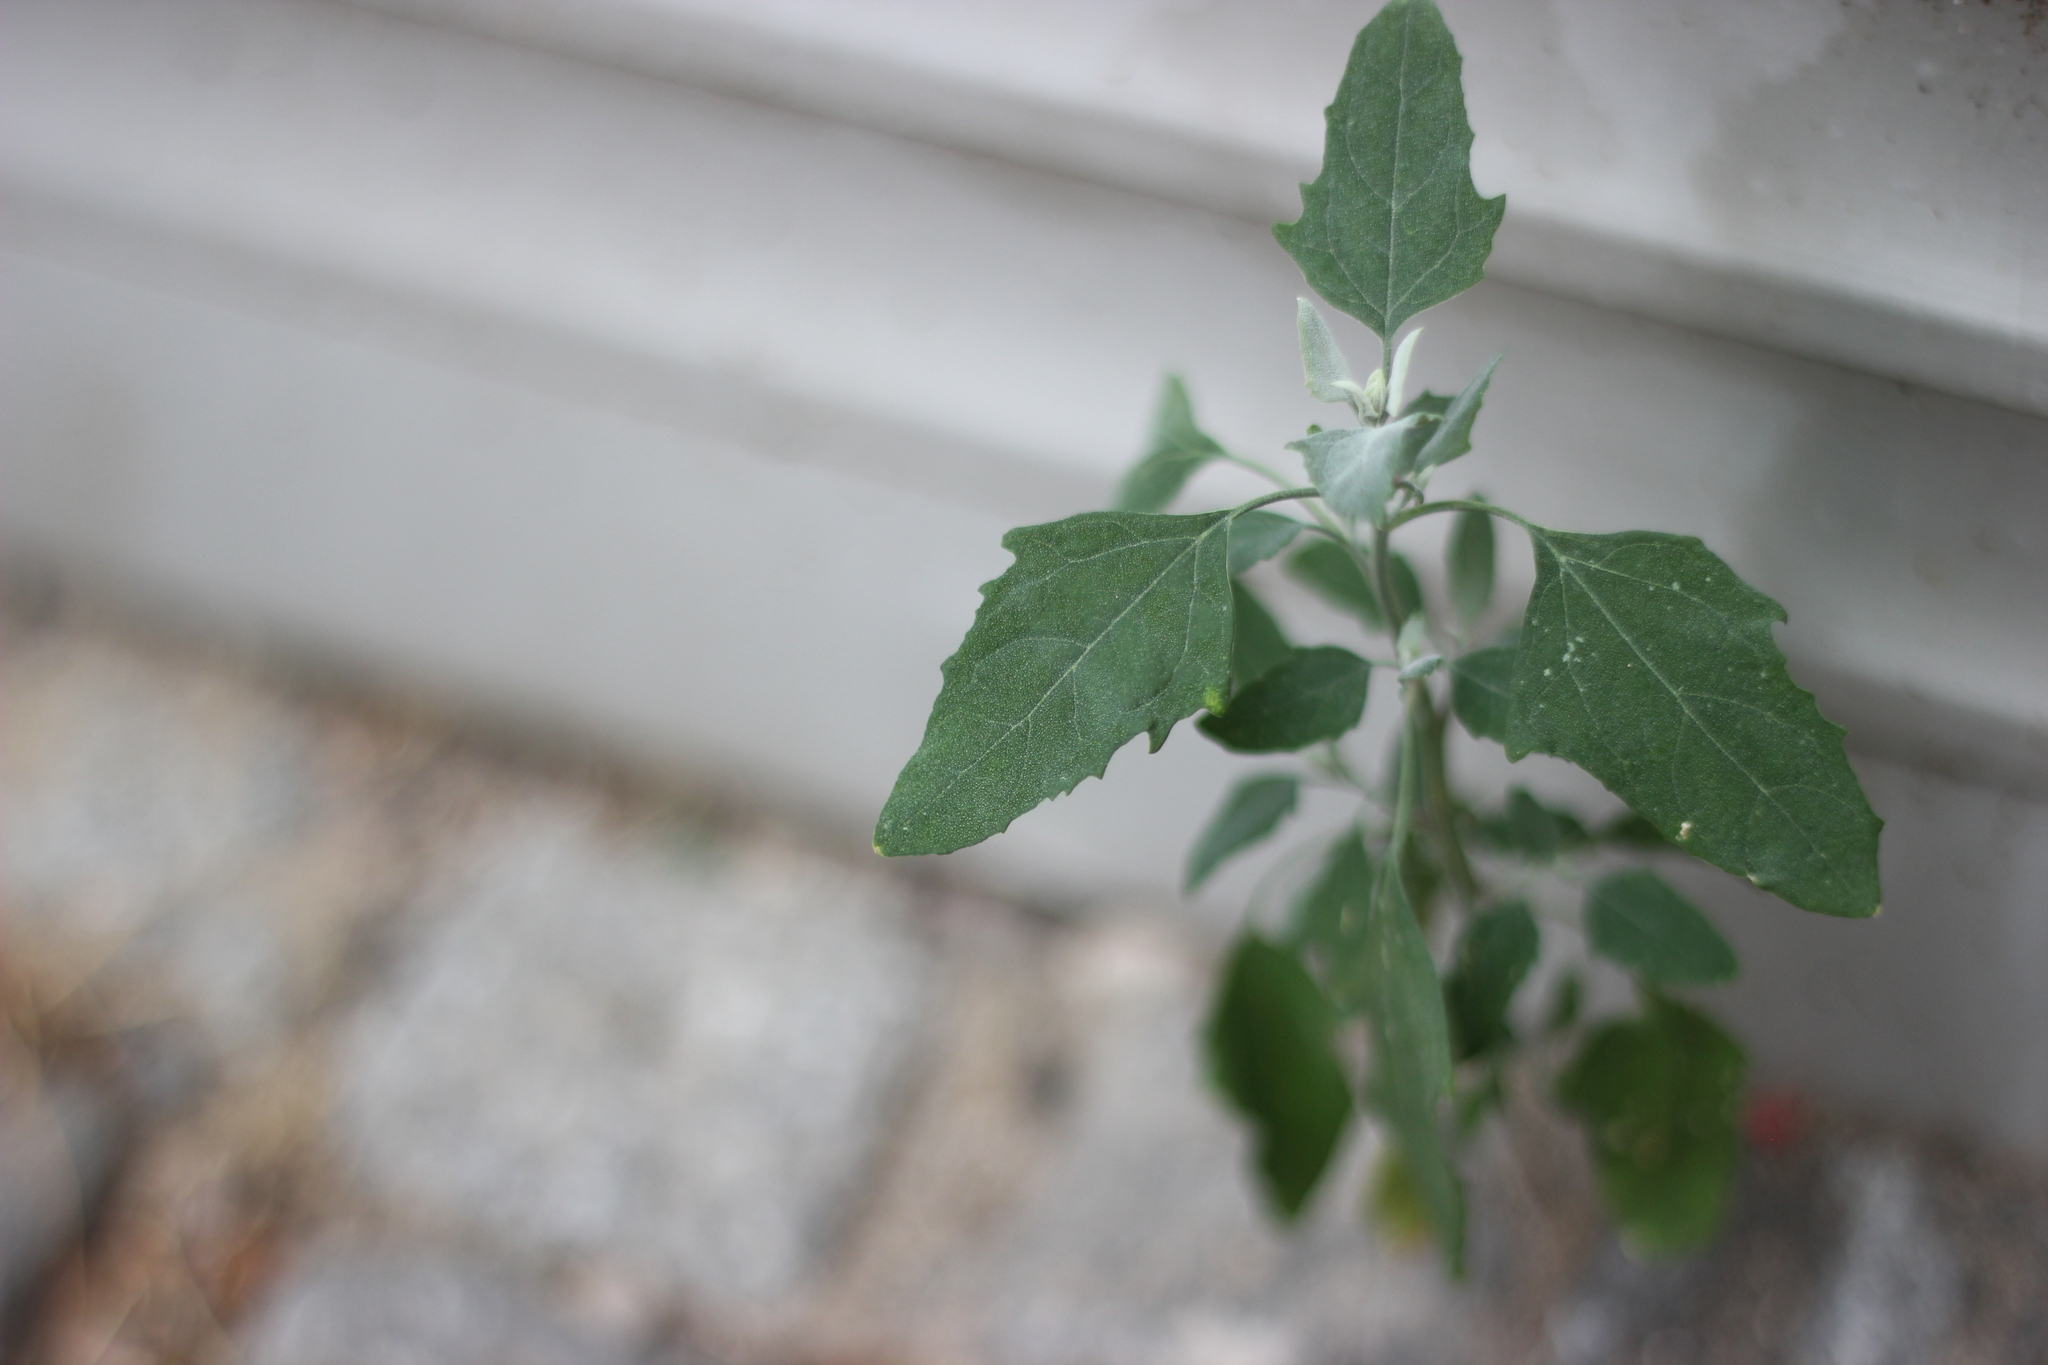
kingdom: Plantae
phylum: Tracheophyta
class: Magnoliopsida
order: Caryophyllales
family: Amaranthaceae
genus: Chenopodium
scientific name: Chenopodium album
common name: Fat-hen
